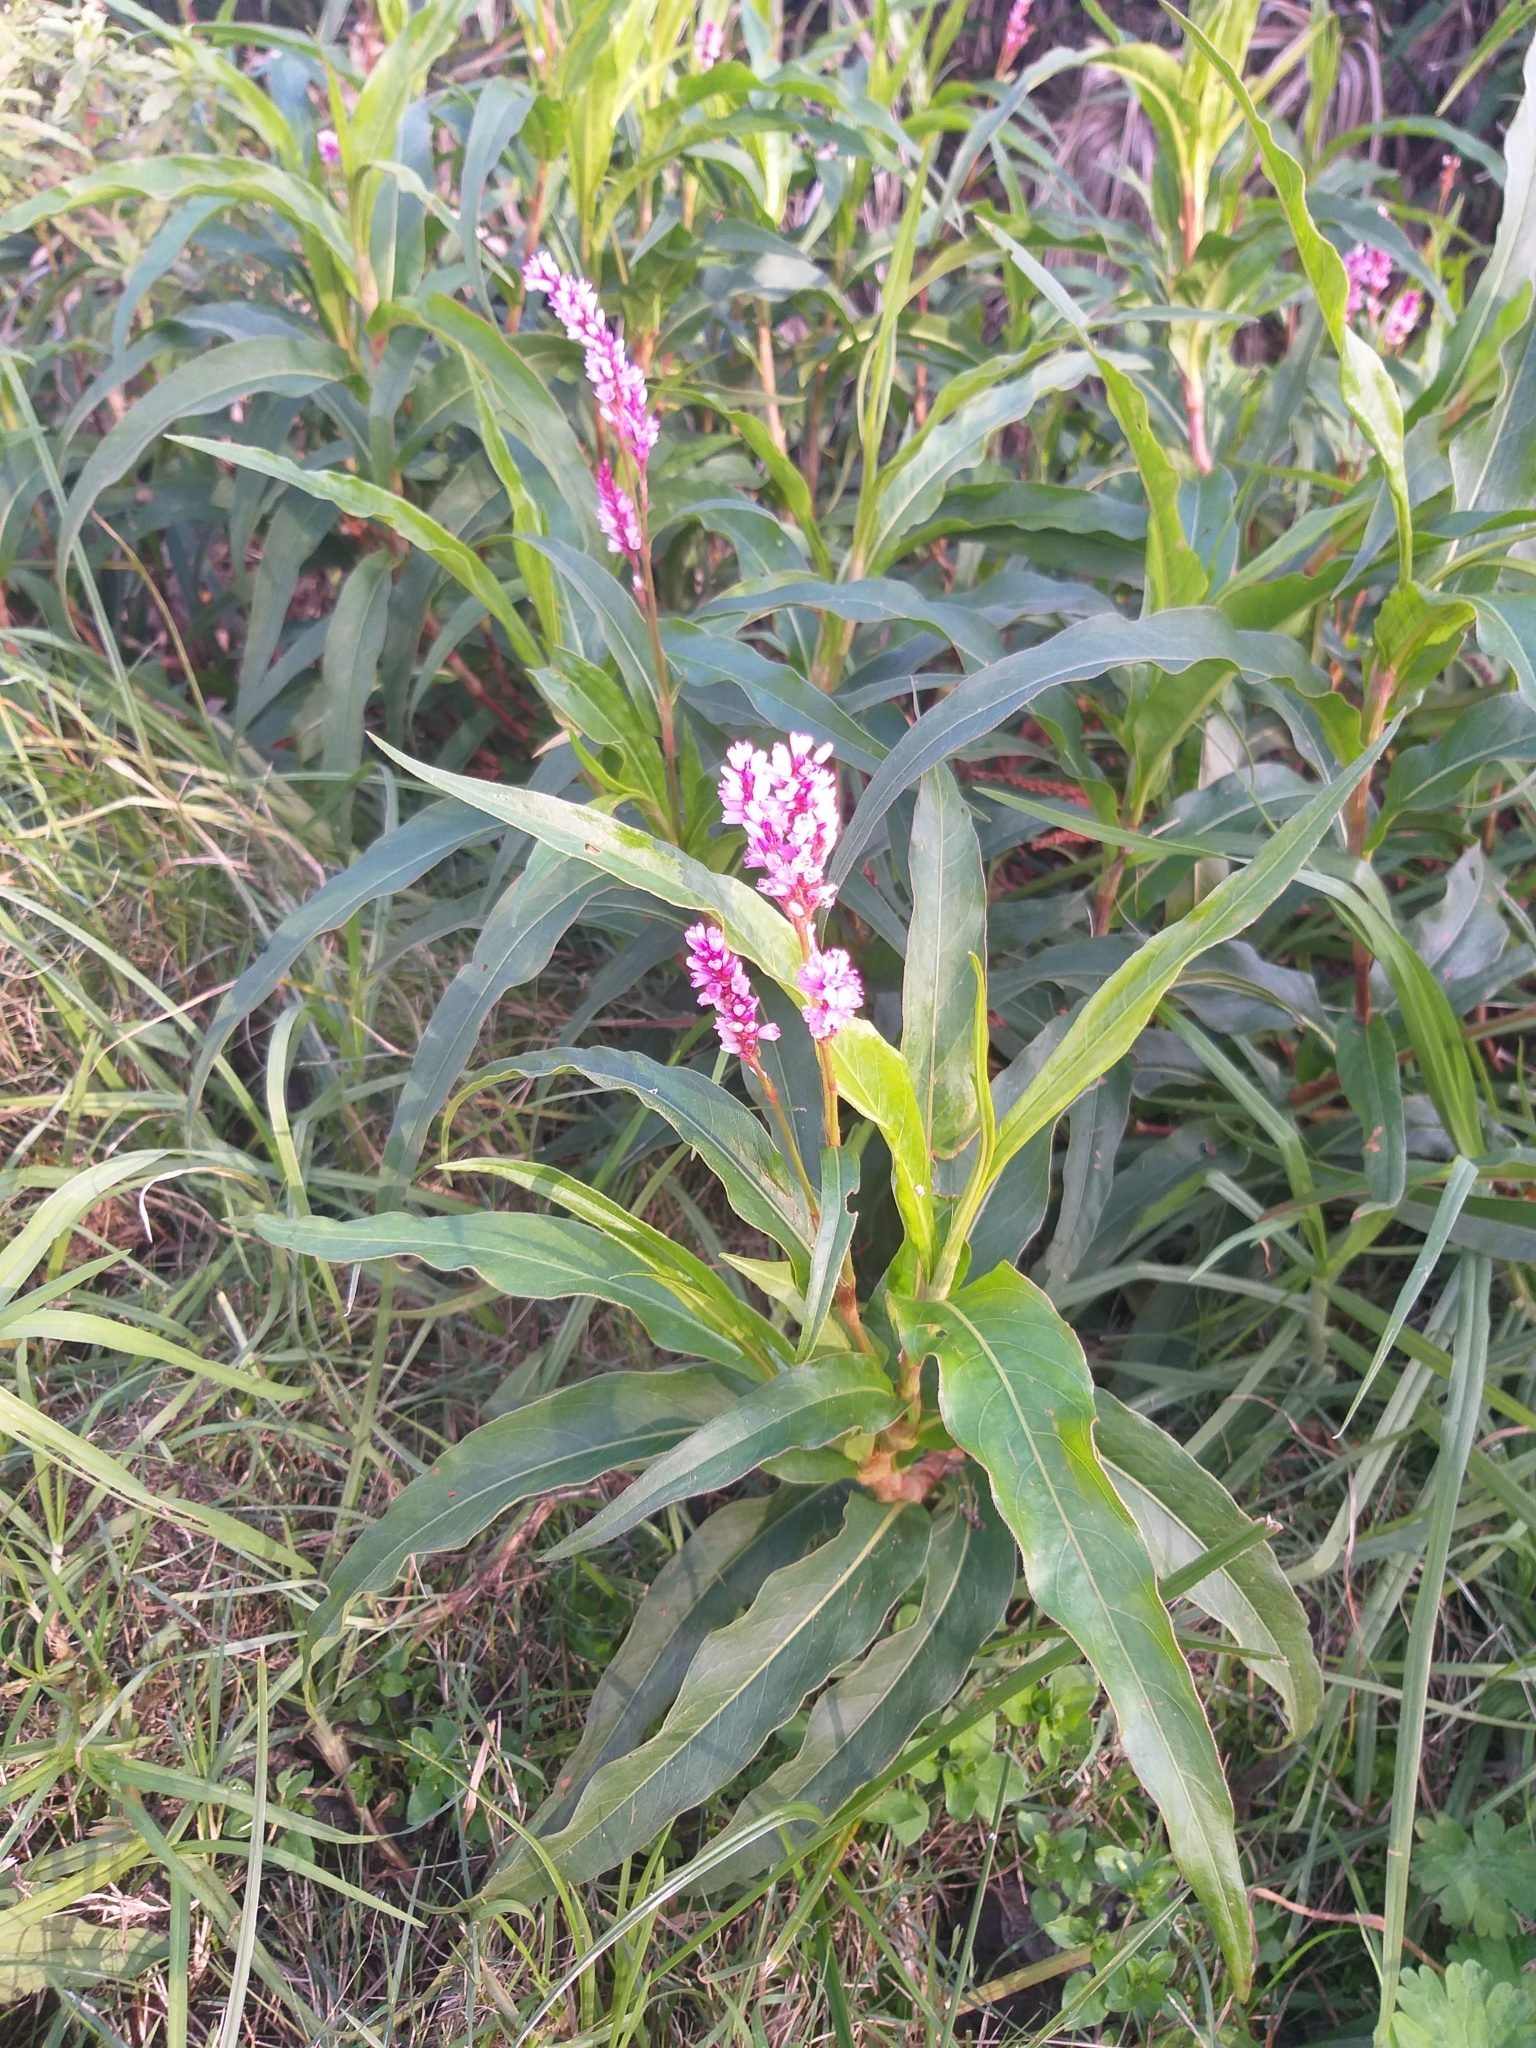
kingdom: Plantae
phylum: Tracheophyta
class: Magnoliopsida
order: Caryophyllales
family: Polygonaceae
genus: Persicaria
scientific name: Persicaria madagascariensis
